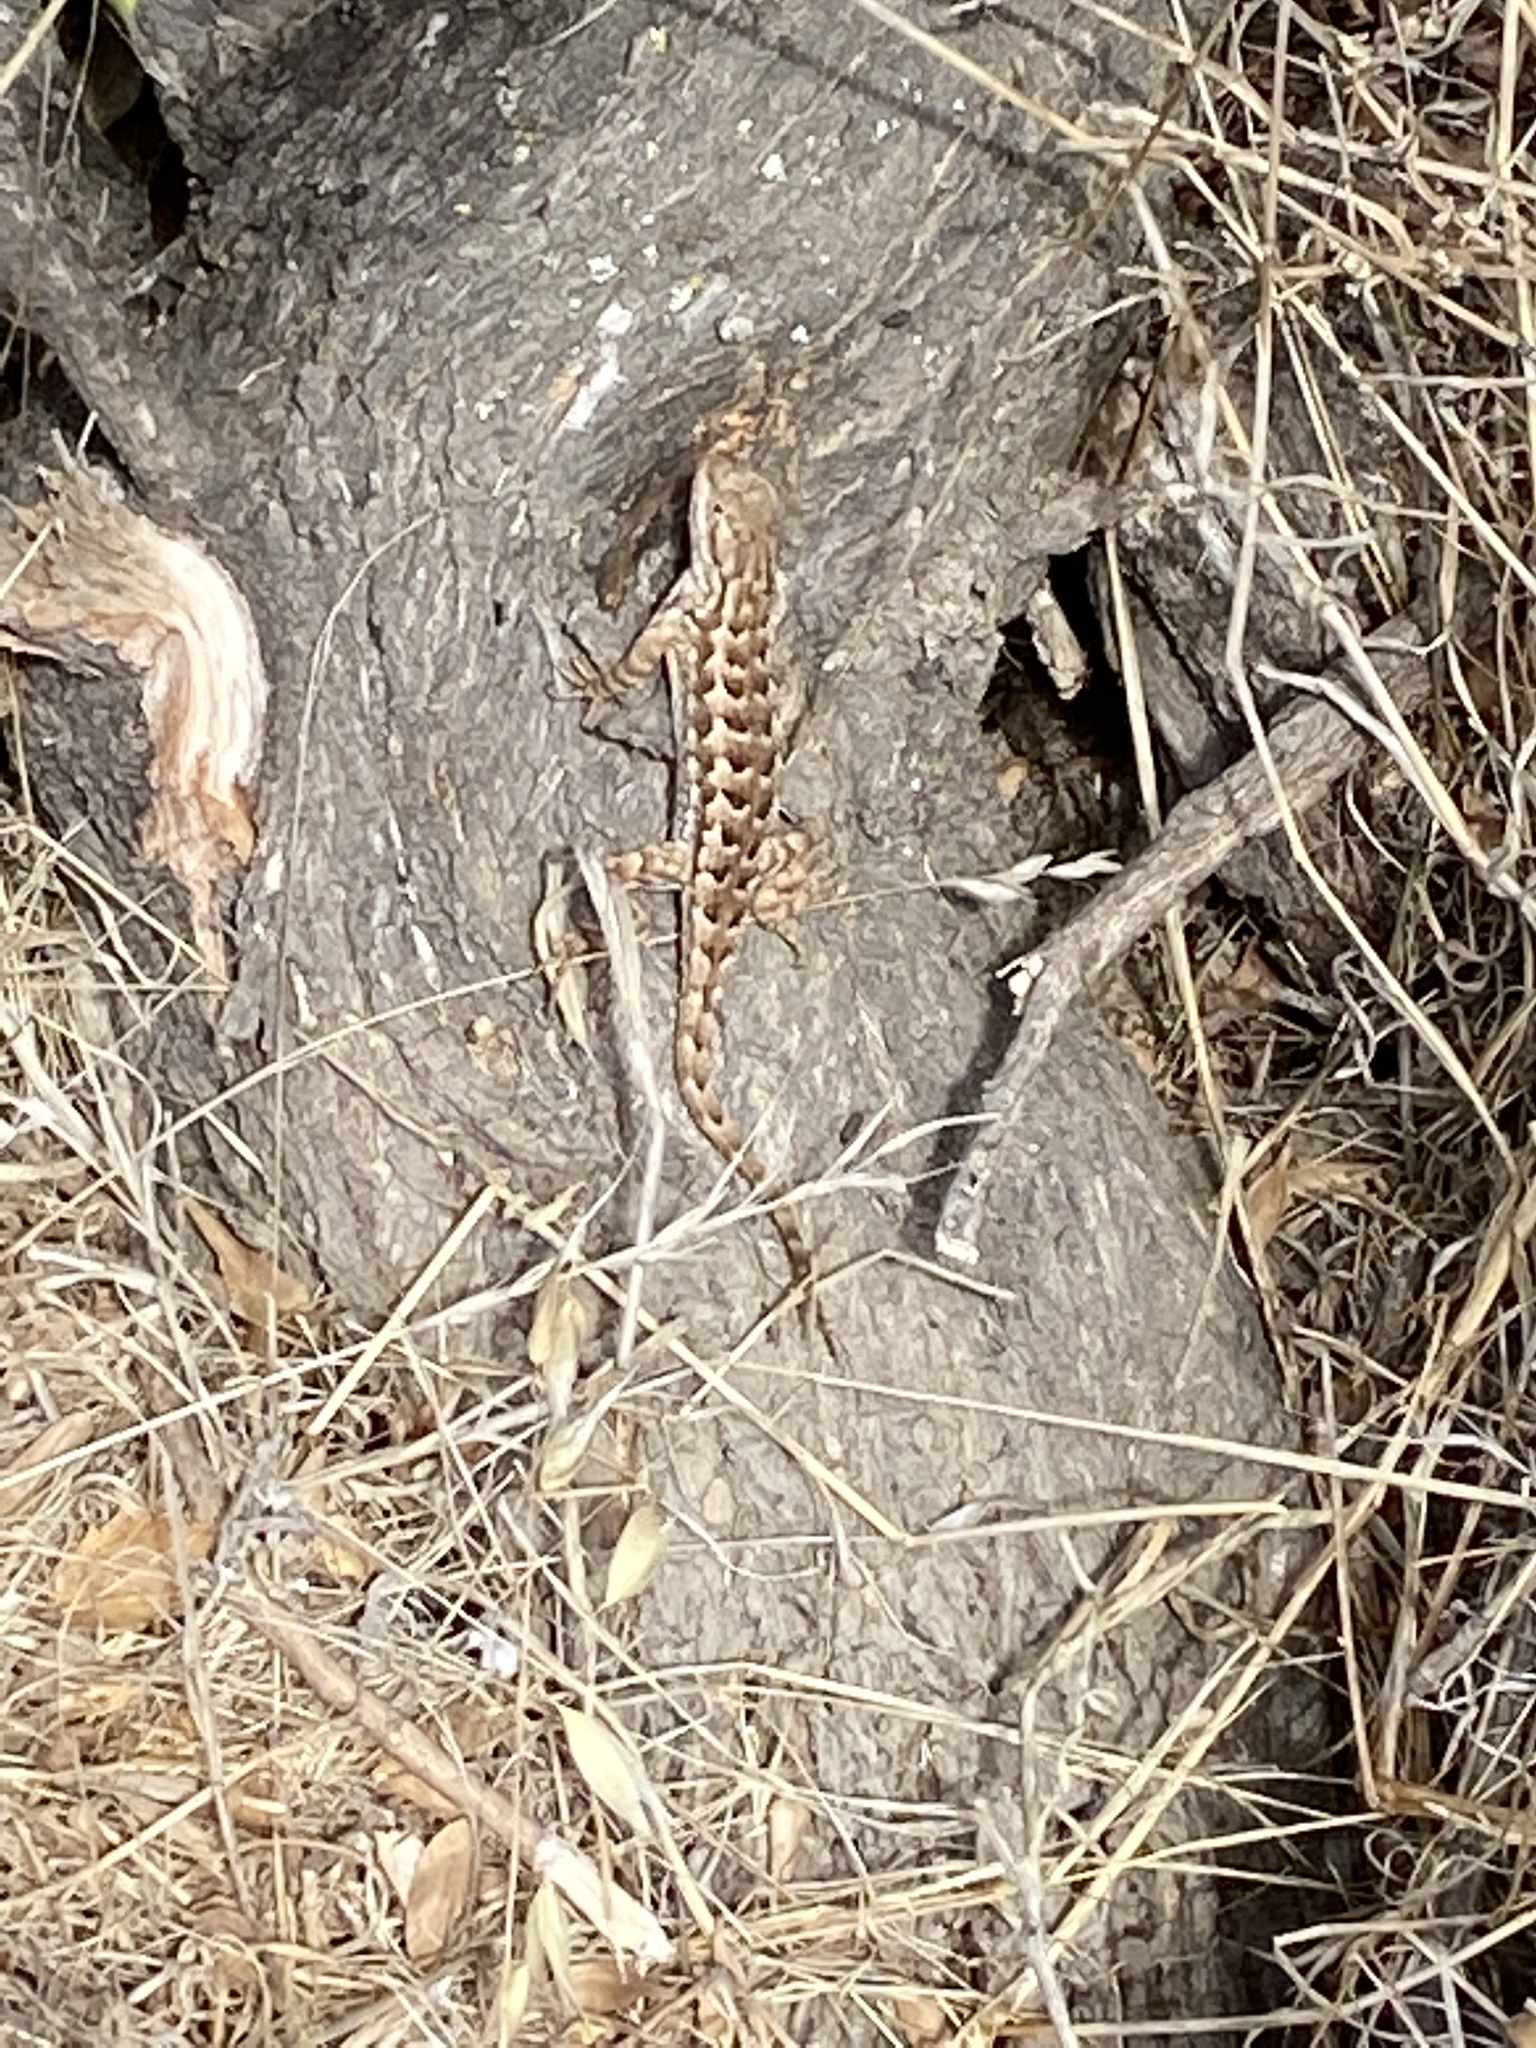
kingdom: Animalia
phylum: Chordata
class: Squamata
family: Phrynosomatidae
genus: Sceloporus
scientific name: Sceloporus occidentalis
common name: Western fence lizard
